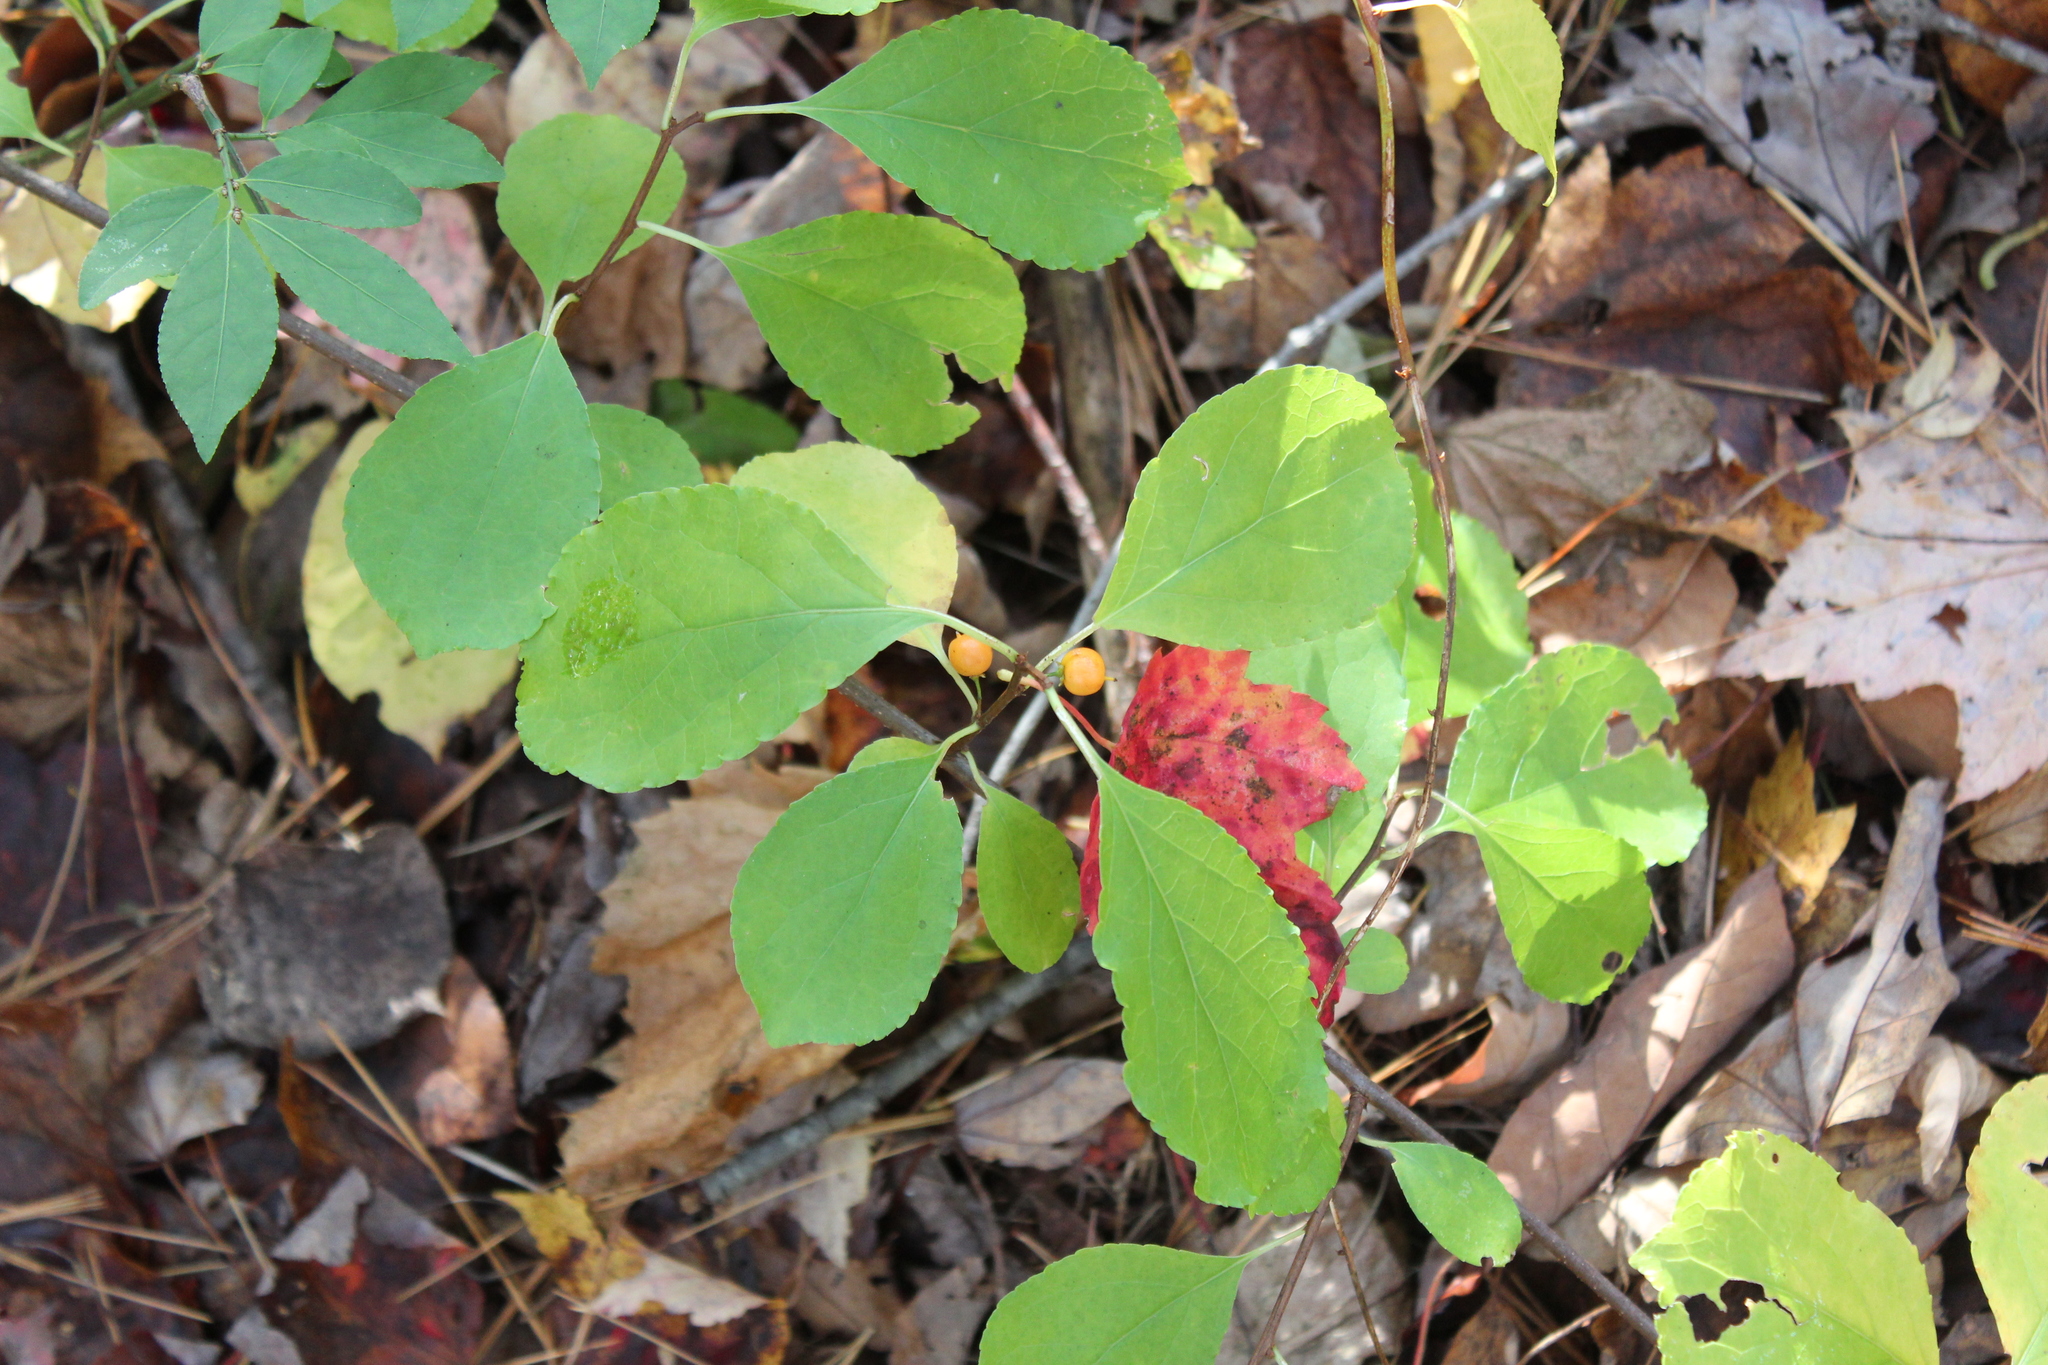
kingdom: Plantae
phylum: Tracheophyta
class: Magnoliopsida
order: Celastrales
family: Celastraceae
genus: Celastrus
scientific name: Celastrus orbiculatus
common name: Oriental bittersweet
